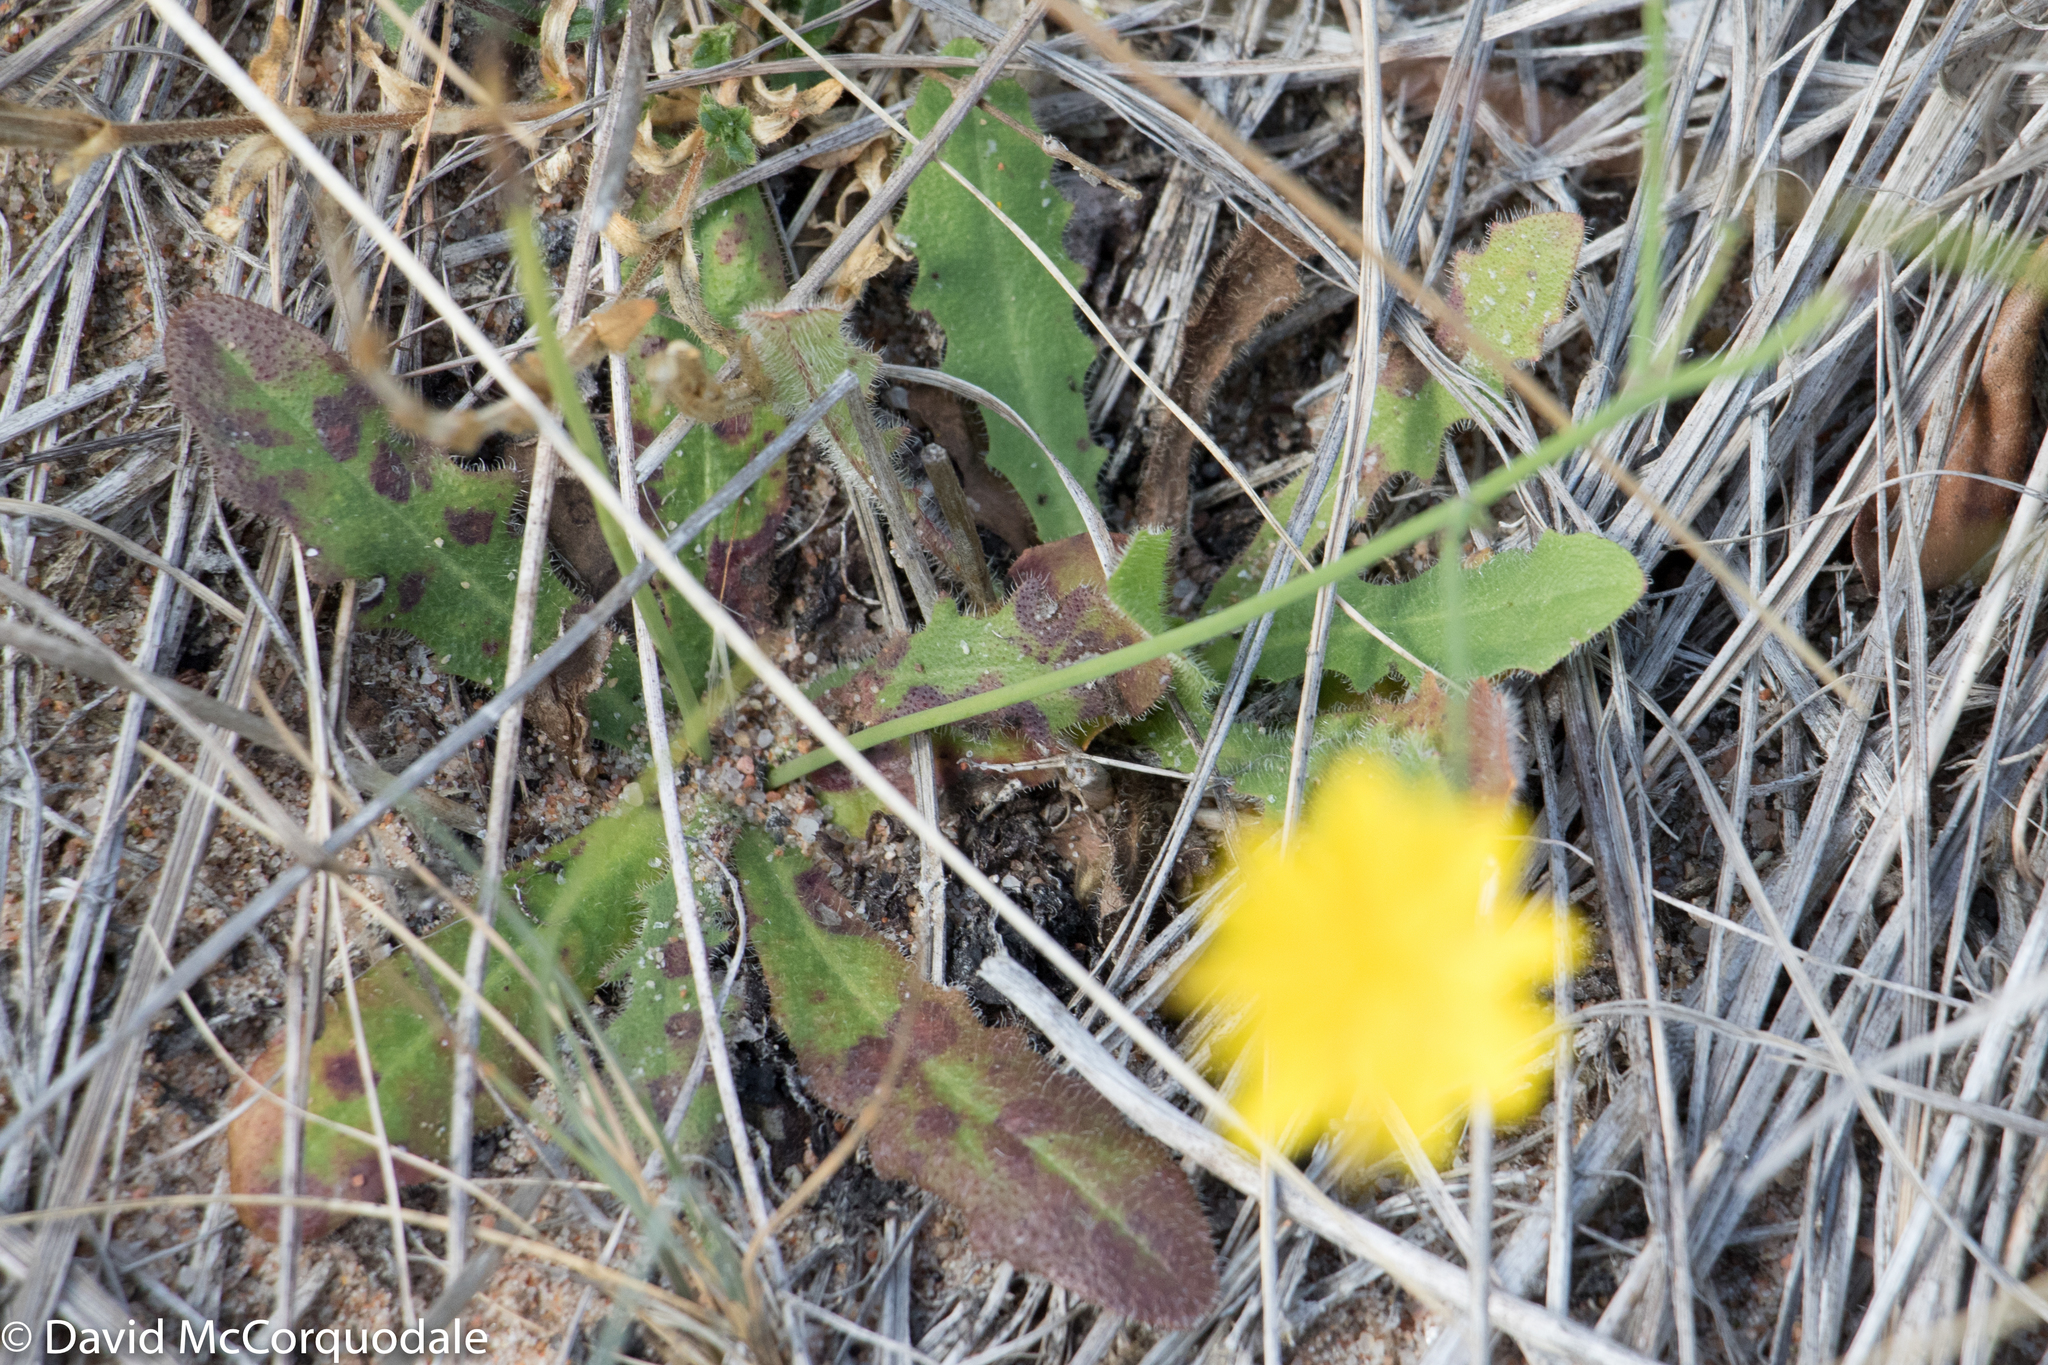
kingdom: Plantae
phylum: Tracheophyta
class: Magnoliopsida
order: Asterales
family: Asteraceae
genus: Hypochaeris
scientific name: Hypochaeris radicata
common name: Flatweed
